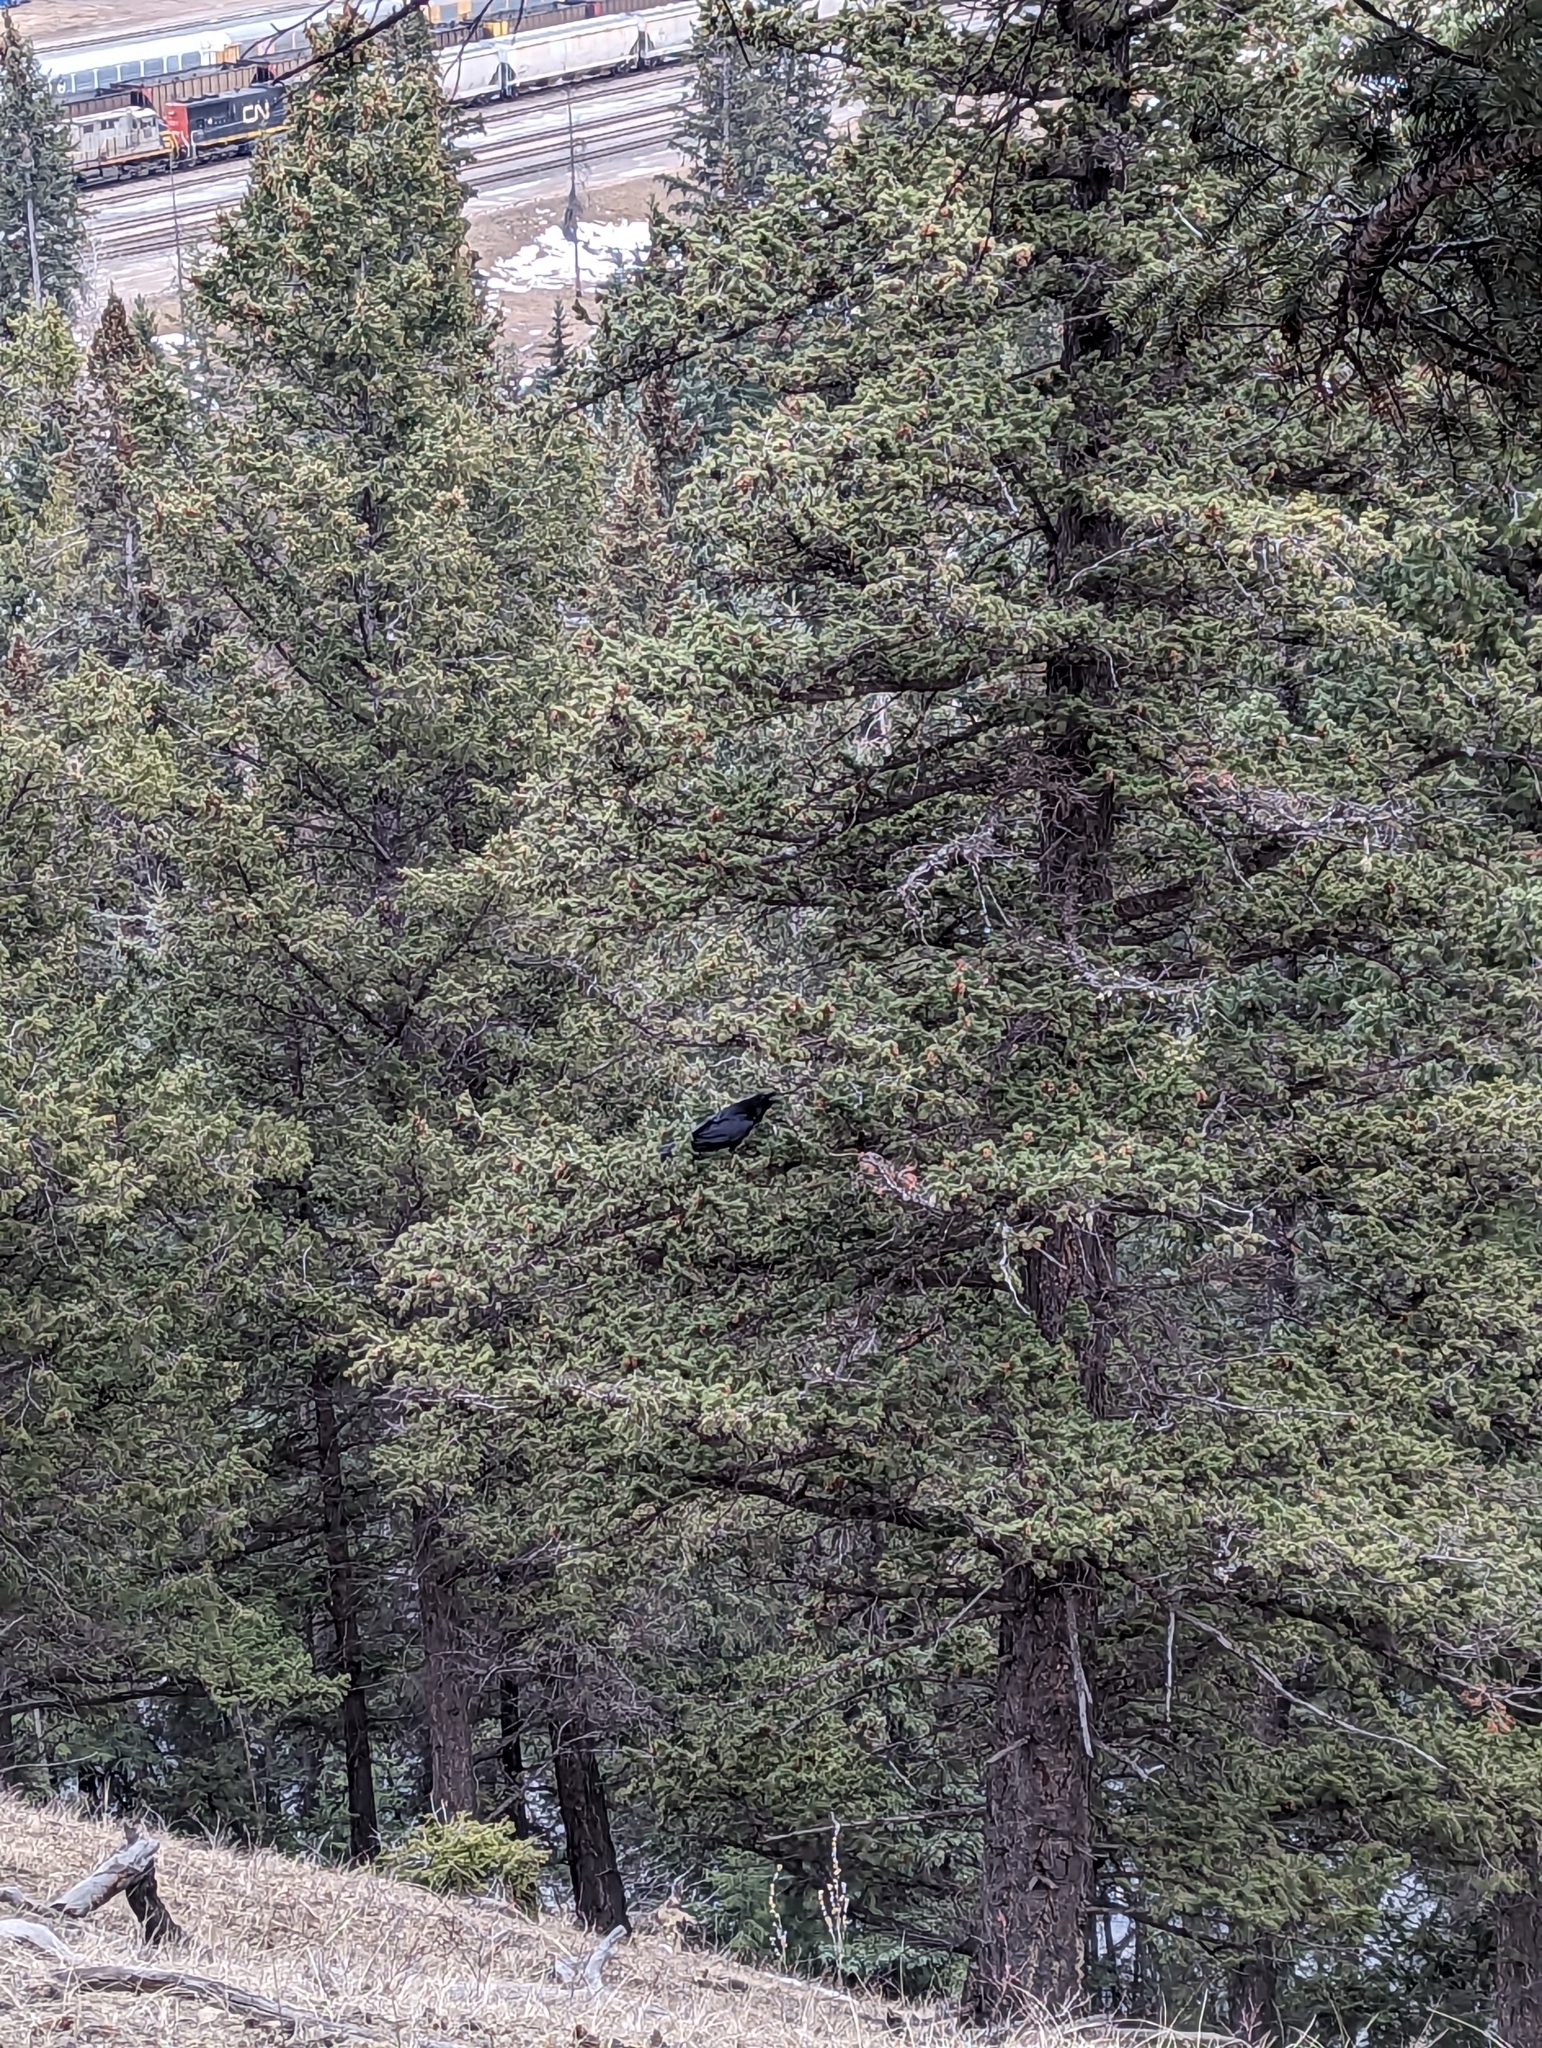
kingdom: Animalia
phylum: Chordata
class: Aves
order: Passeriformes
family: Corvidae
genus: Corvus
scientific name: Corvus corax
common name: Common raven
